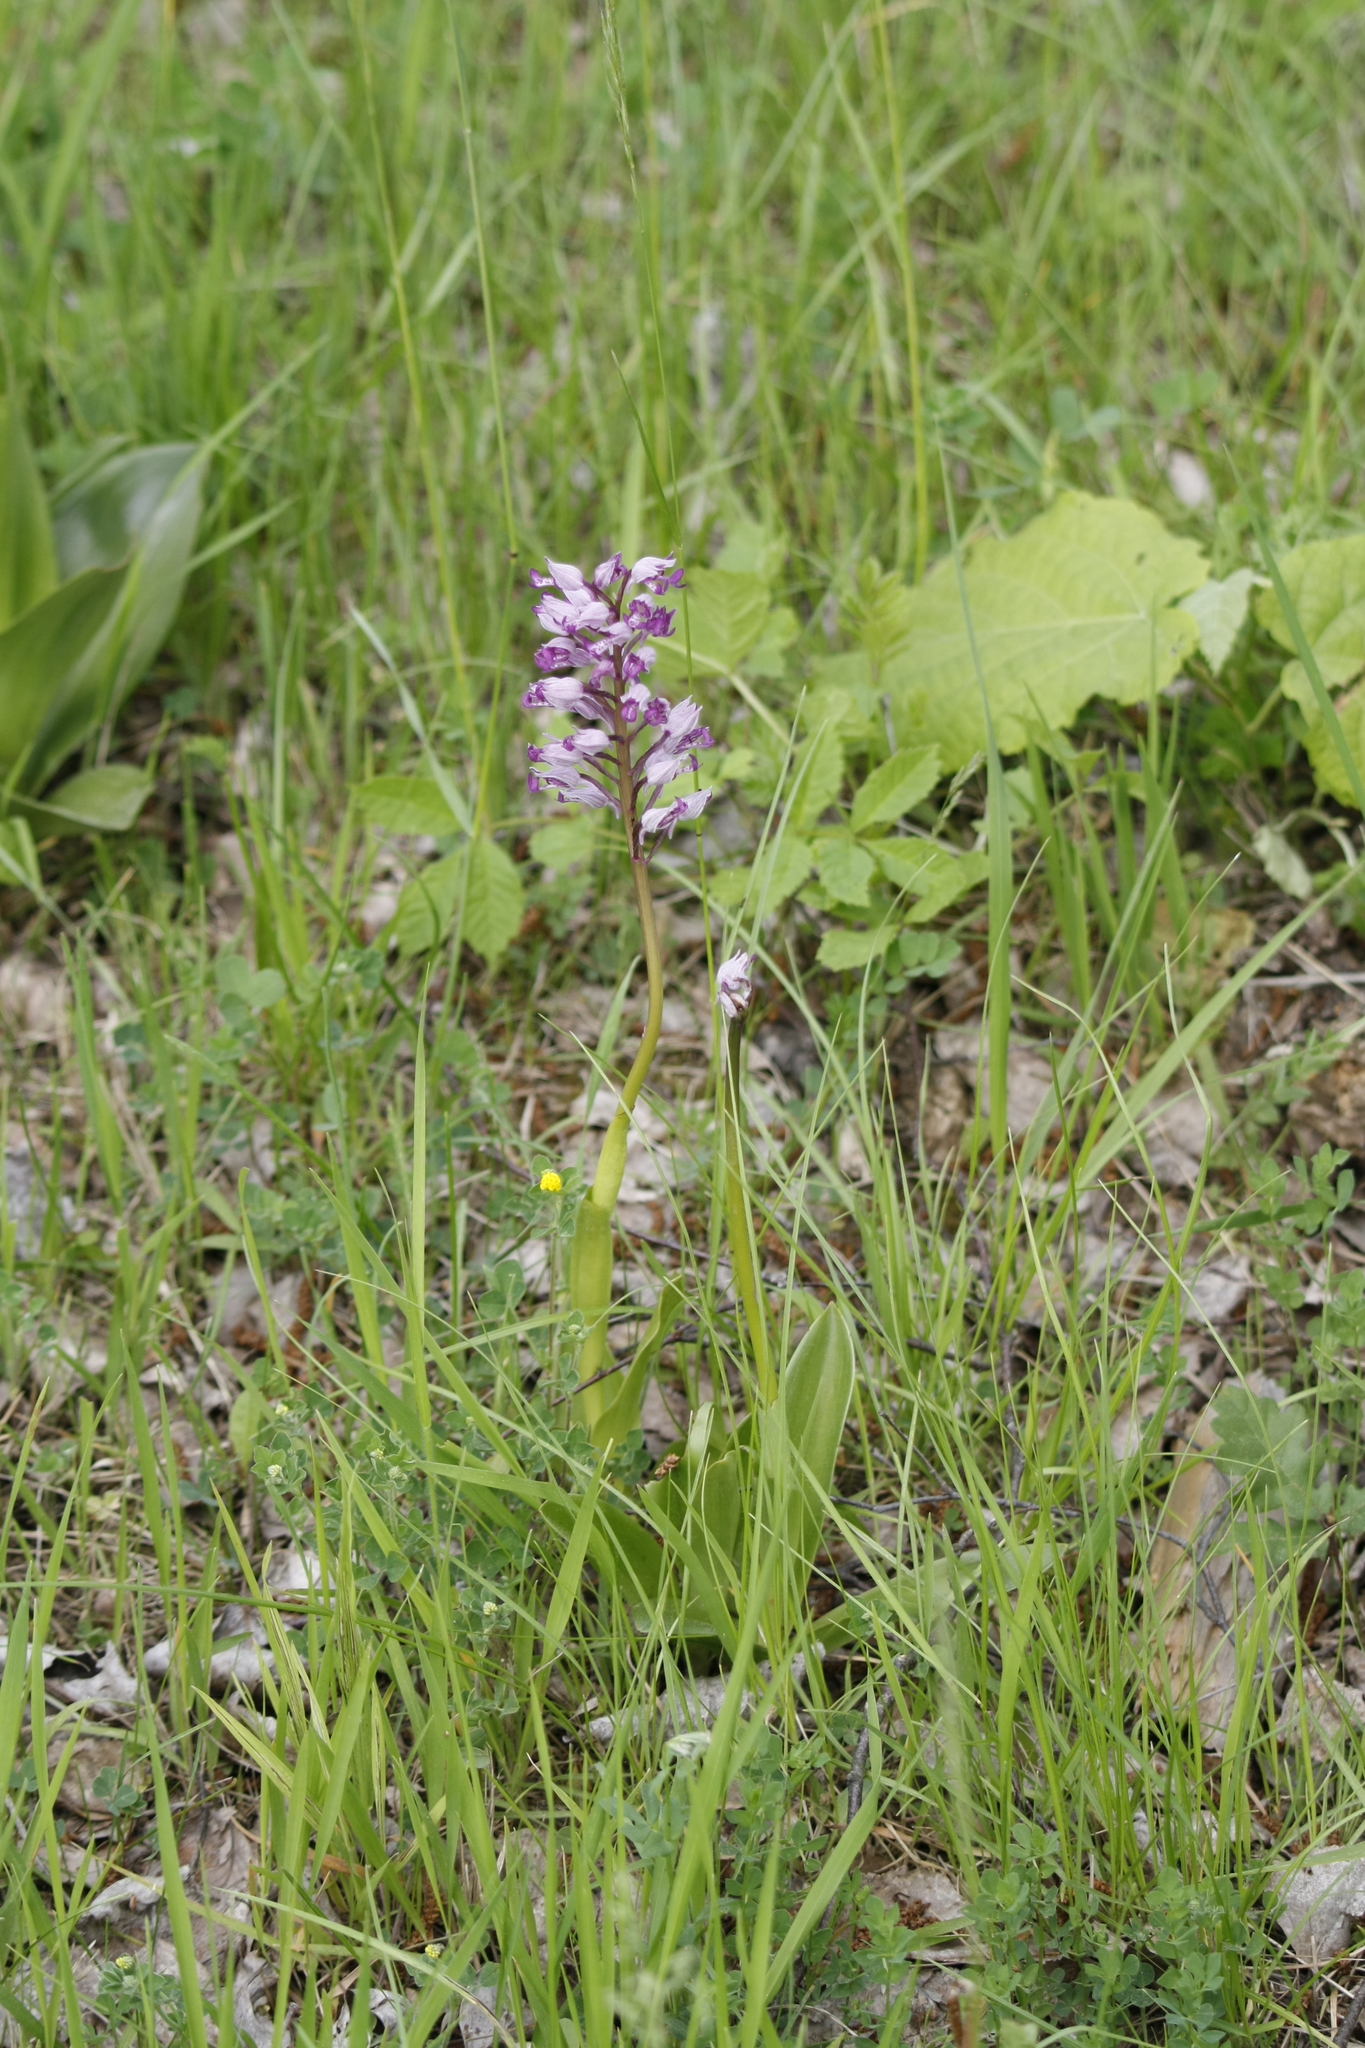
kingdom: Plantae
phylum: Tracheophyta
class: Liliopsida
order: Asparagales
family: Orchidaceae
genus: Orchis
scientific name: Orchis militaris
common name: Military orchid
